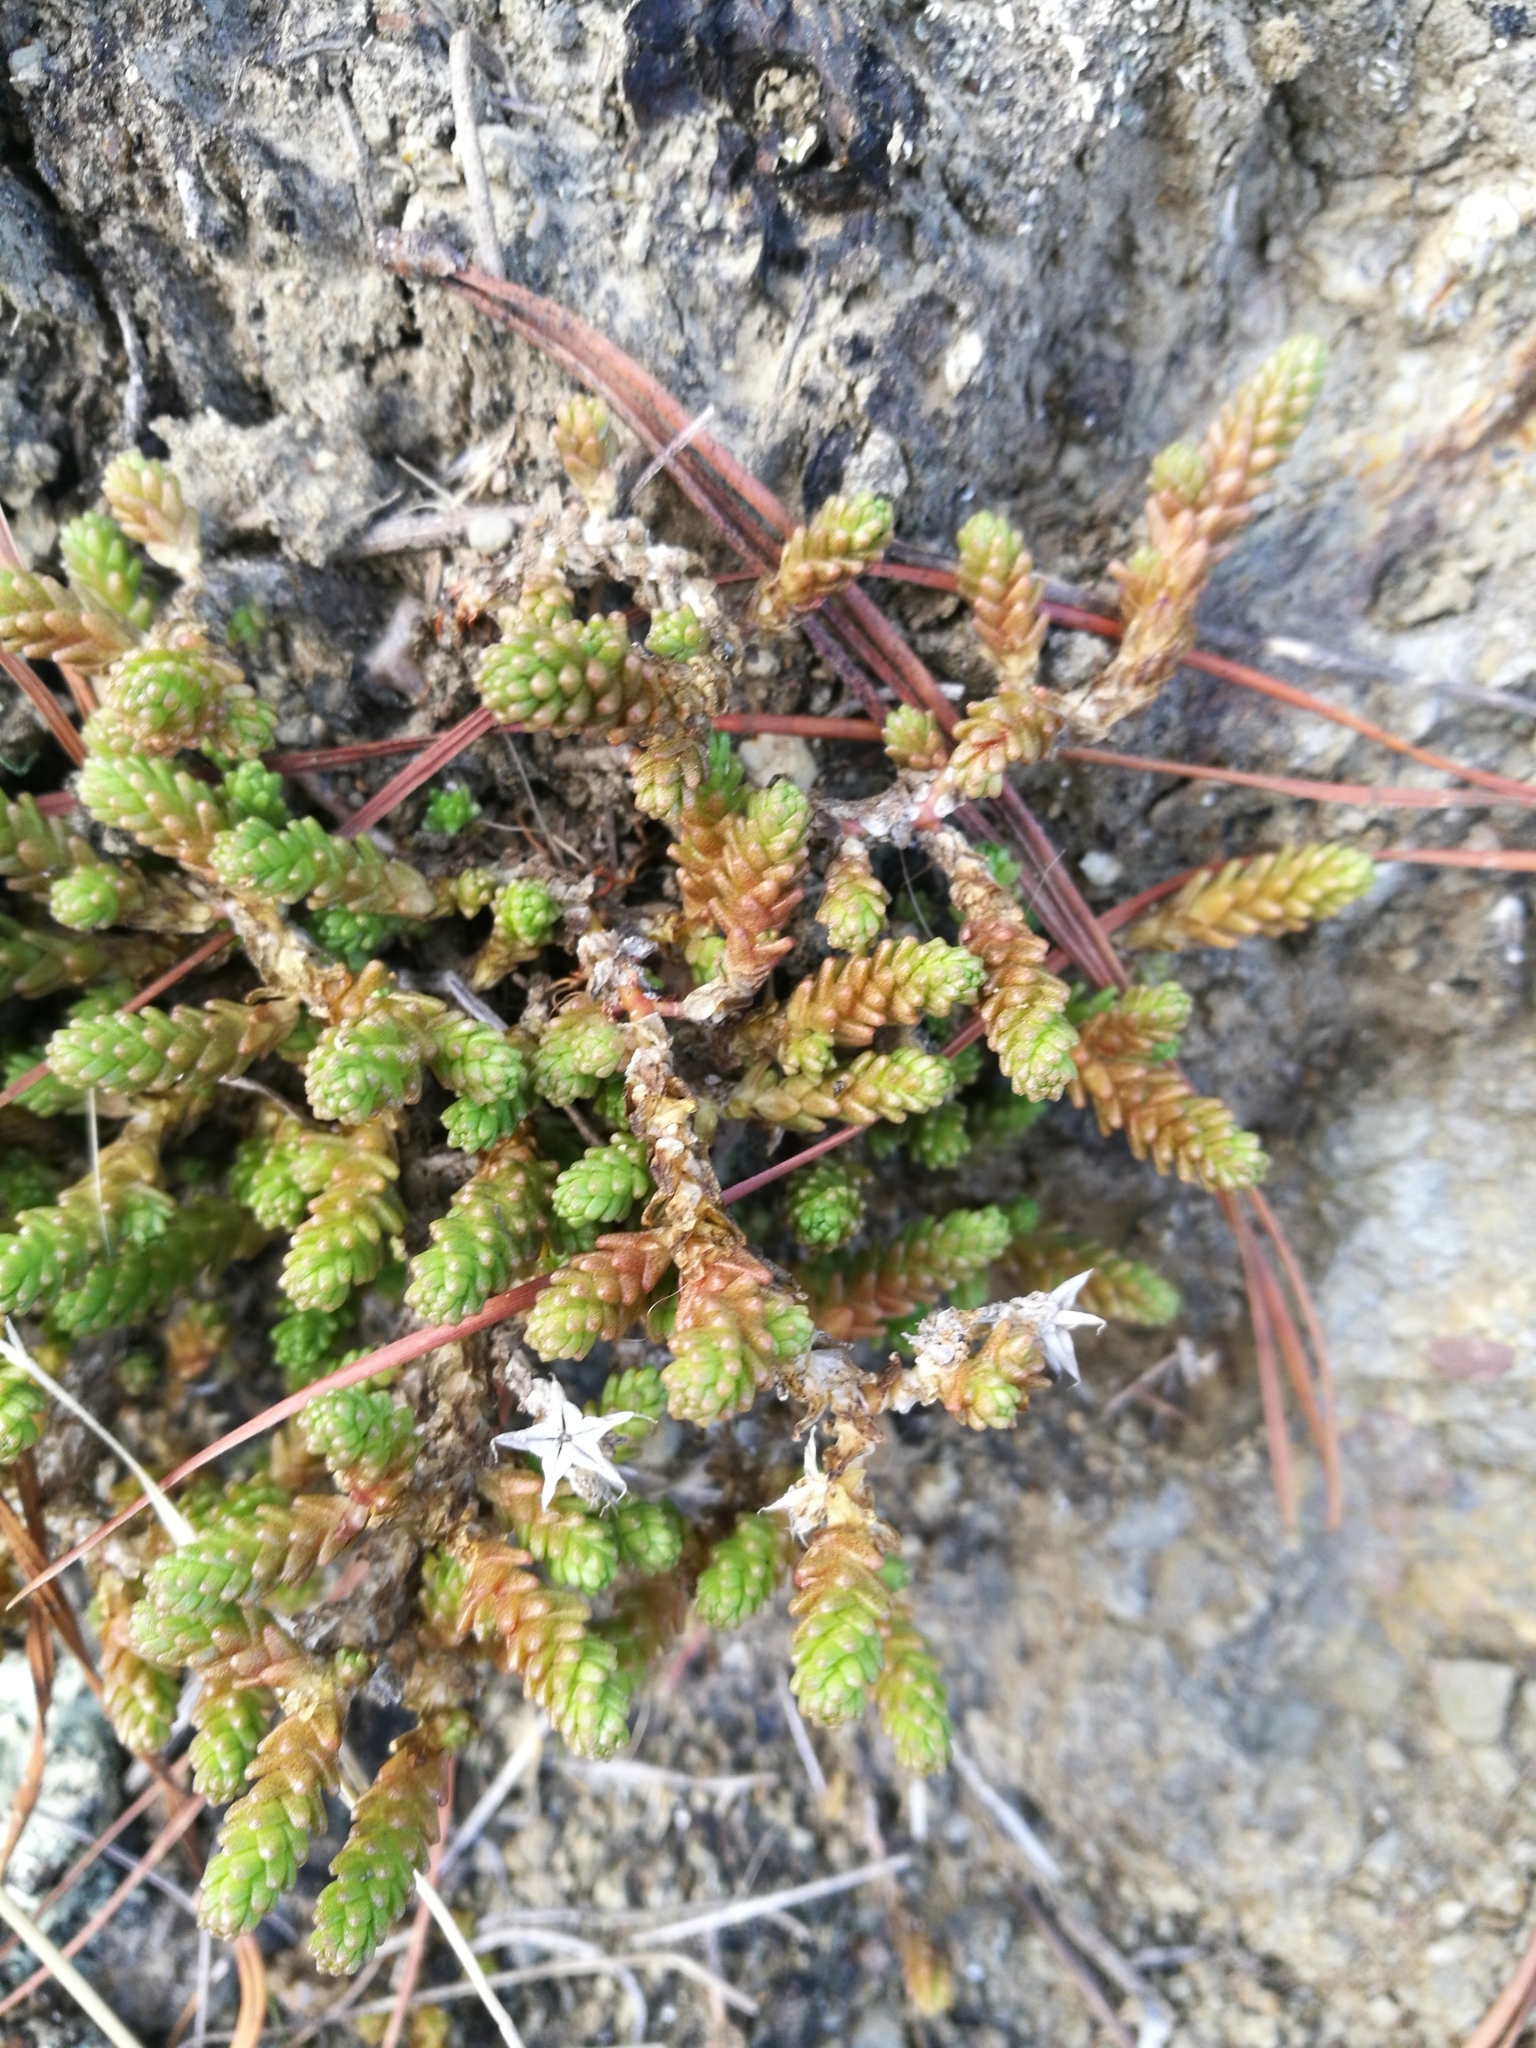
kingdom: Plantae
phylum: Tracheophyta
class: Magnoliopsida
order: Saxifragales
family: Crassulaceae
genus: Sedum
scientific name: Sedum acre
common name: Biting stonecrop
